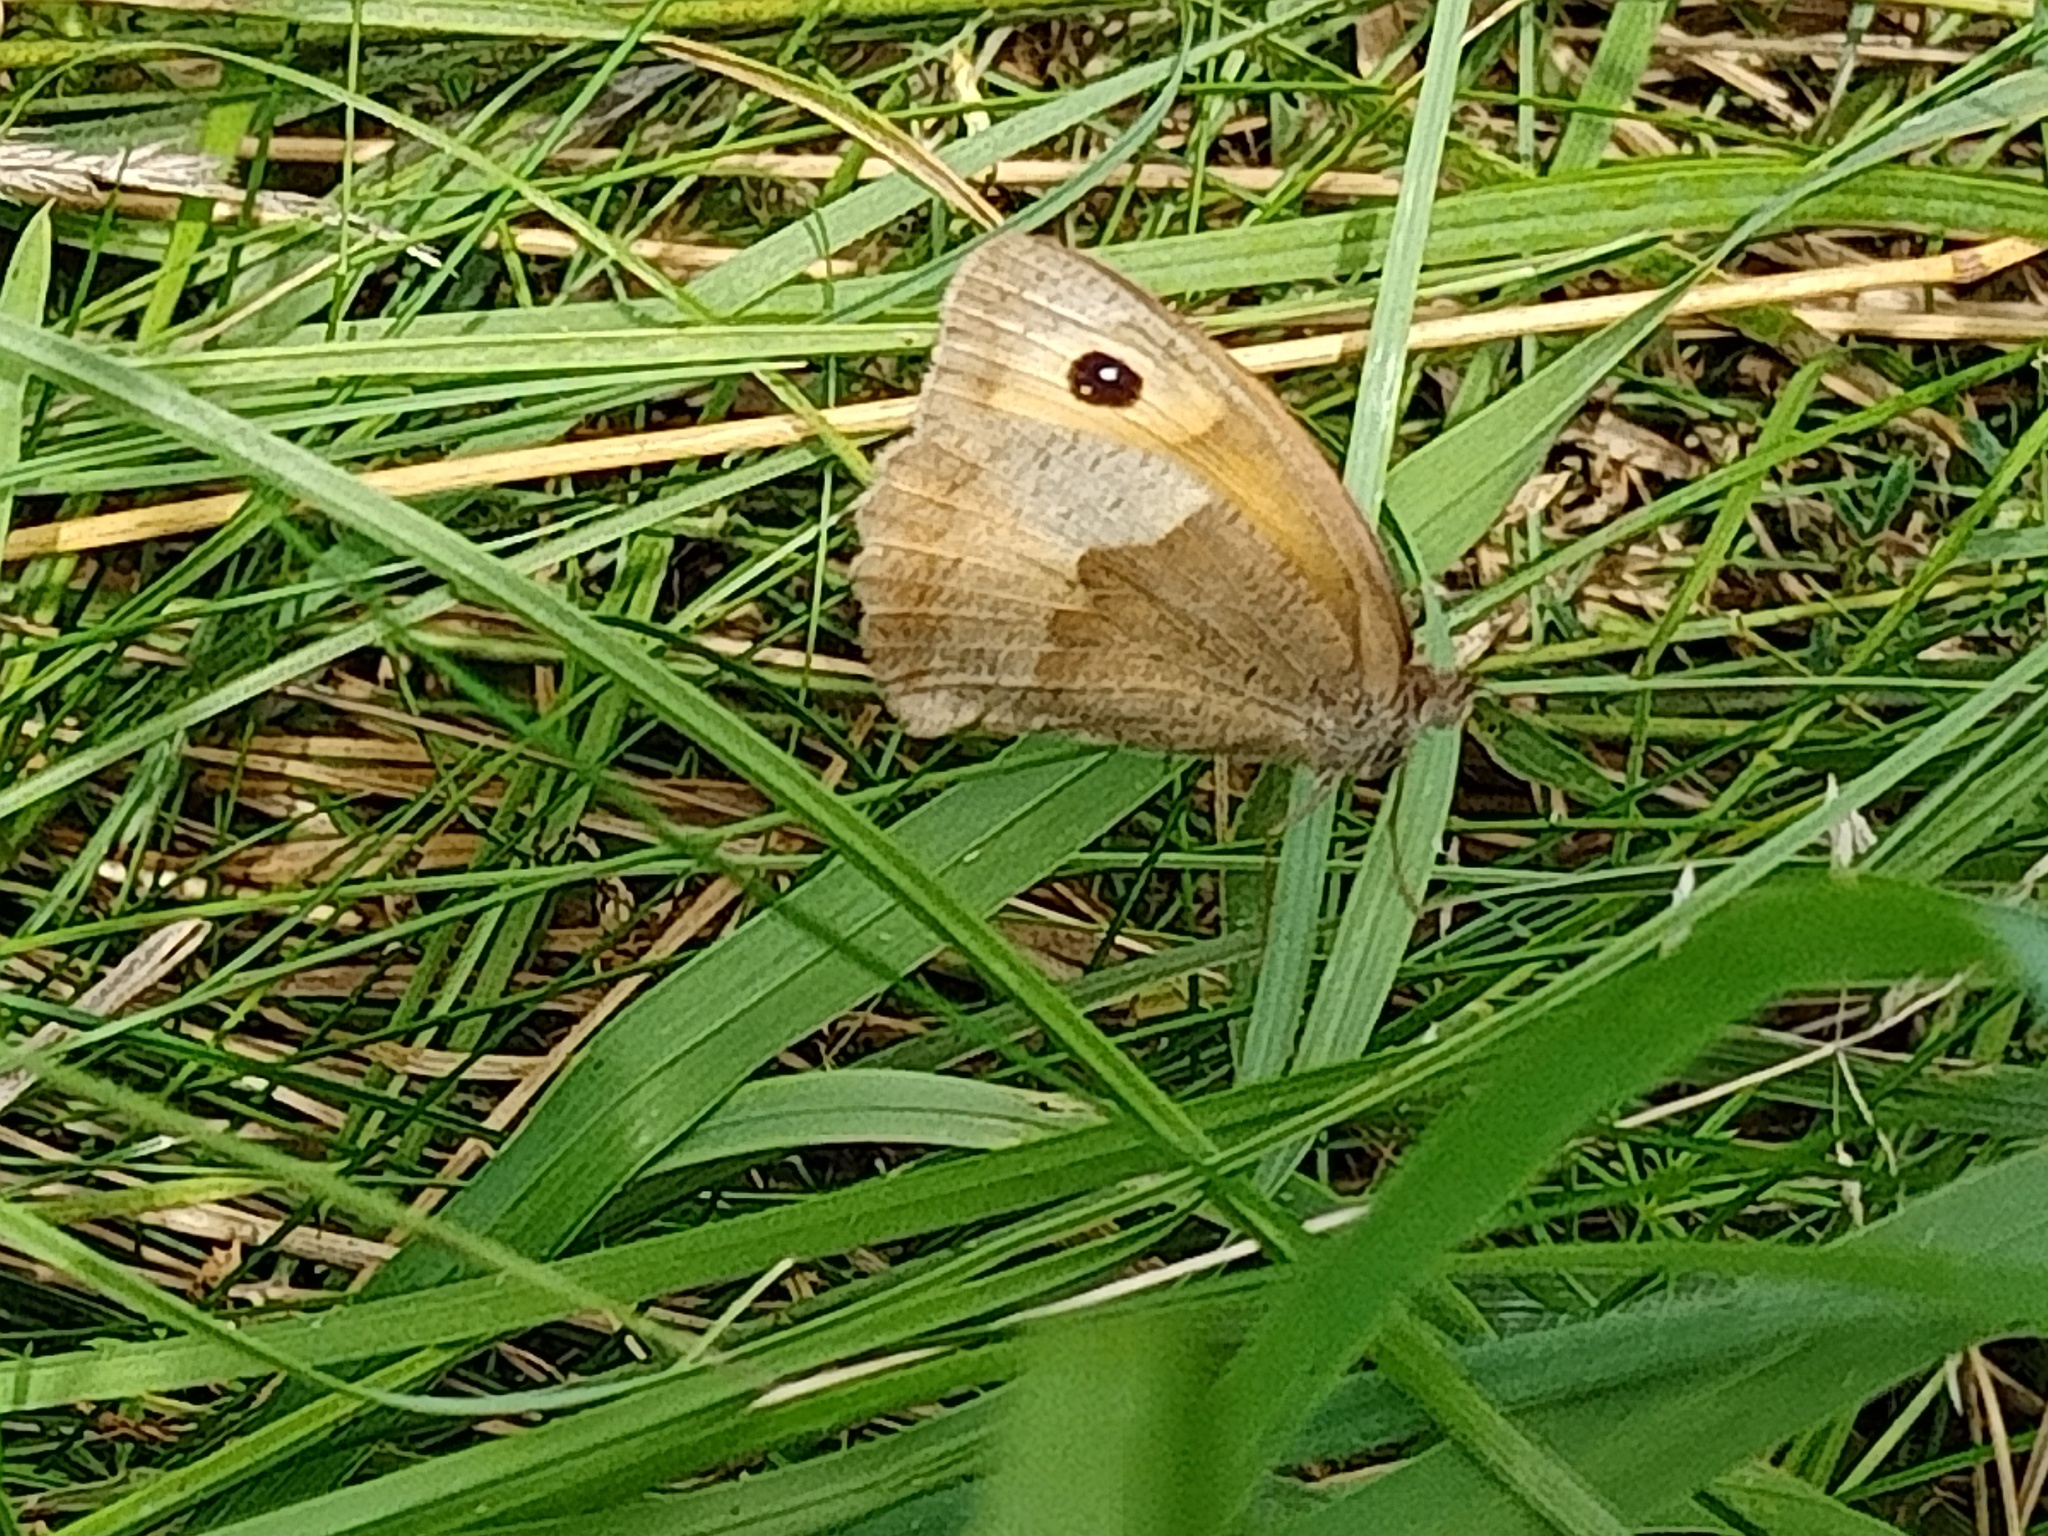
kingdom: Animalia
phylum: Arthropoda
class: Insecta
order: Lepidoptera
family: Nymphalidae
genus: Maniola
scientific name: Maniola jurtina
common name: Meadow brown
